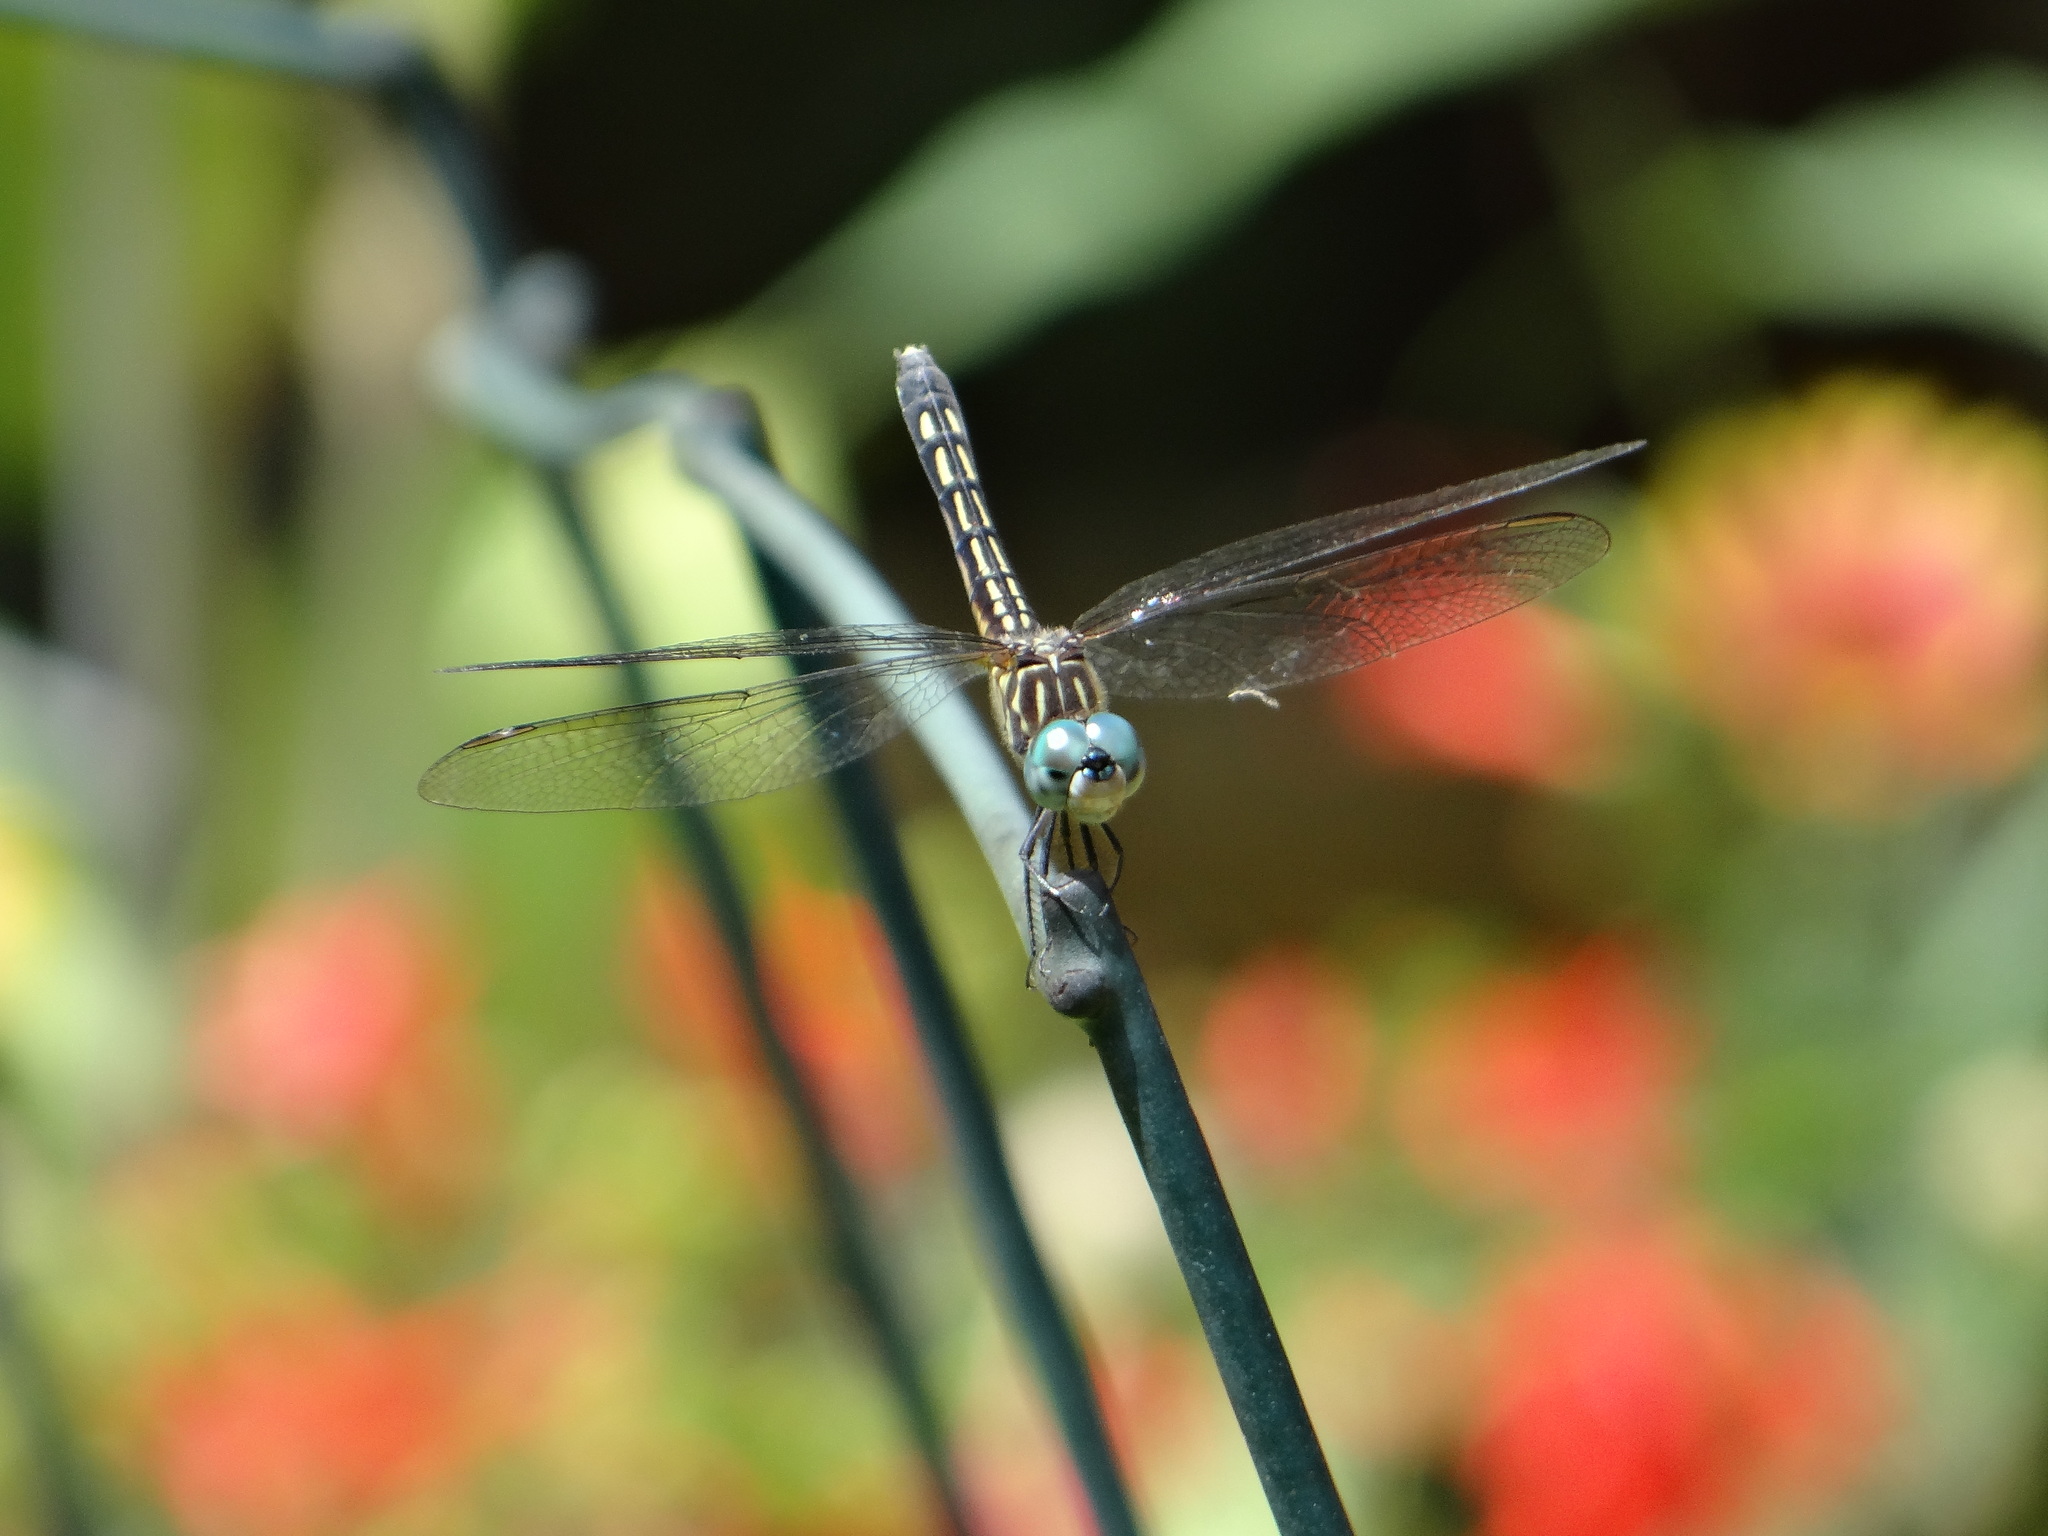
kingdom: Animalia
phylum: Arthropoda
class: Insecta
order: Odonata
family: Libellulidae
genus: Pachydiplax
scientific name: Pachydiplax longipennis
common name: Blue dasher
